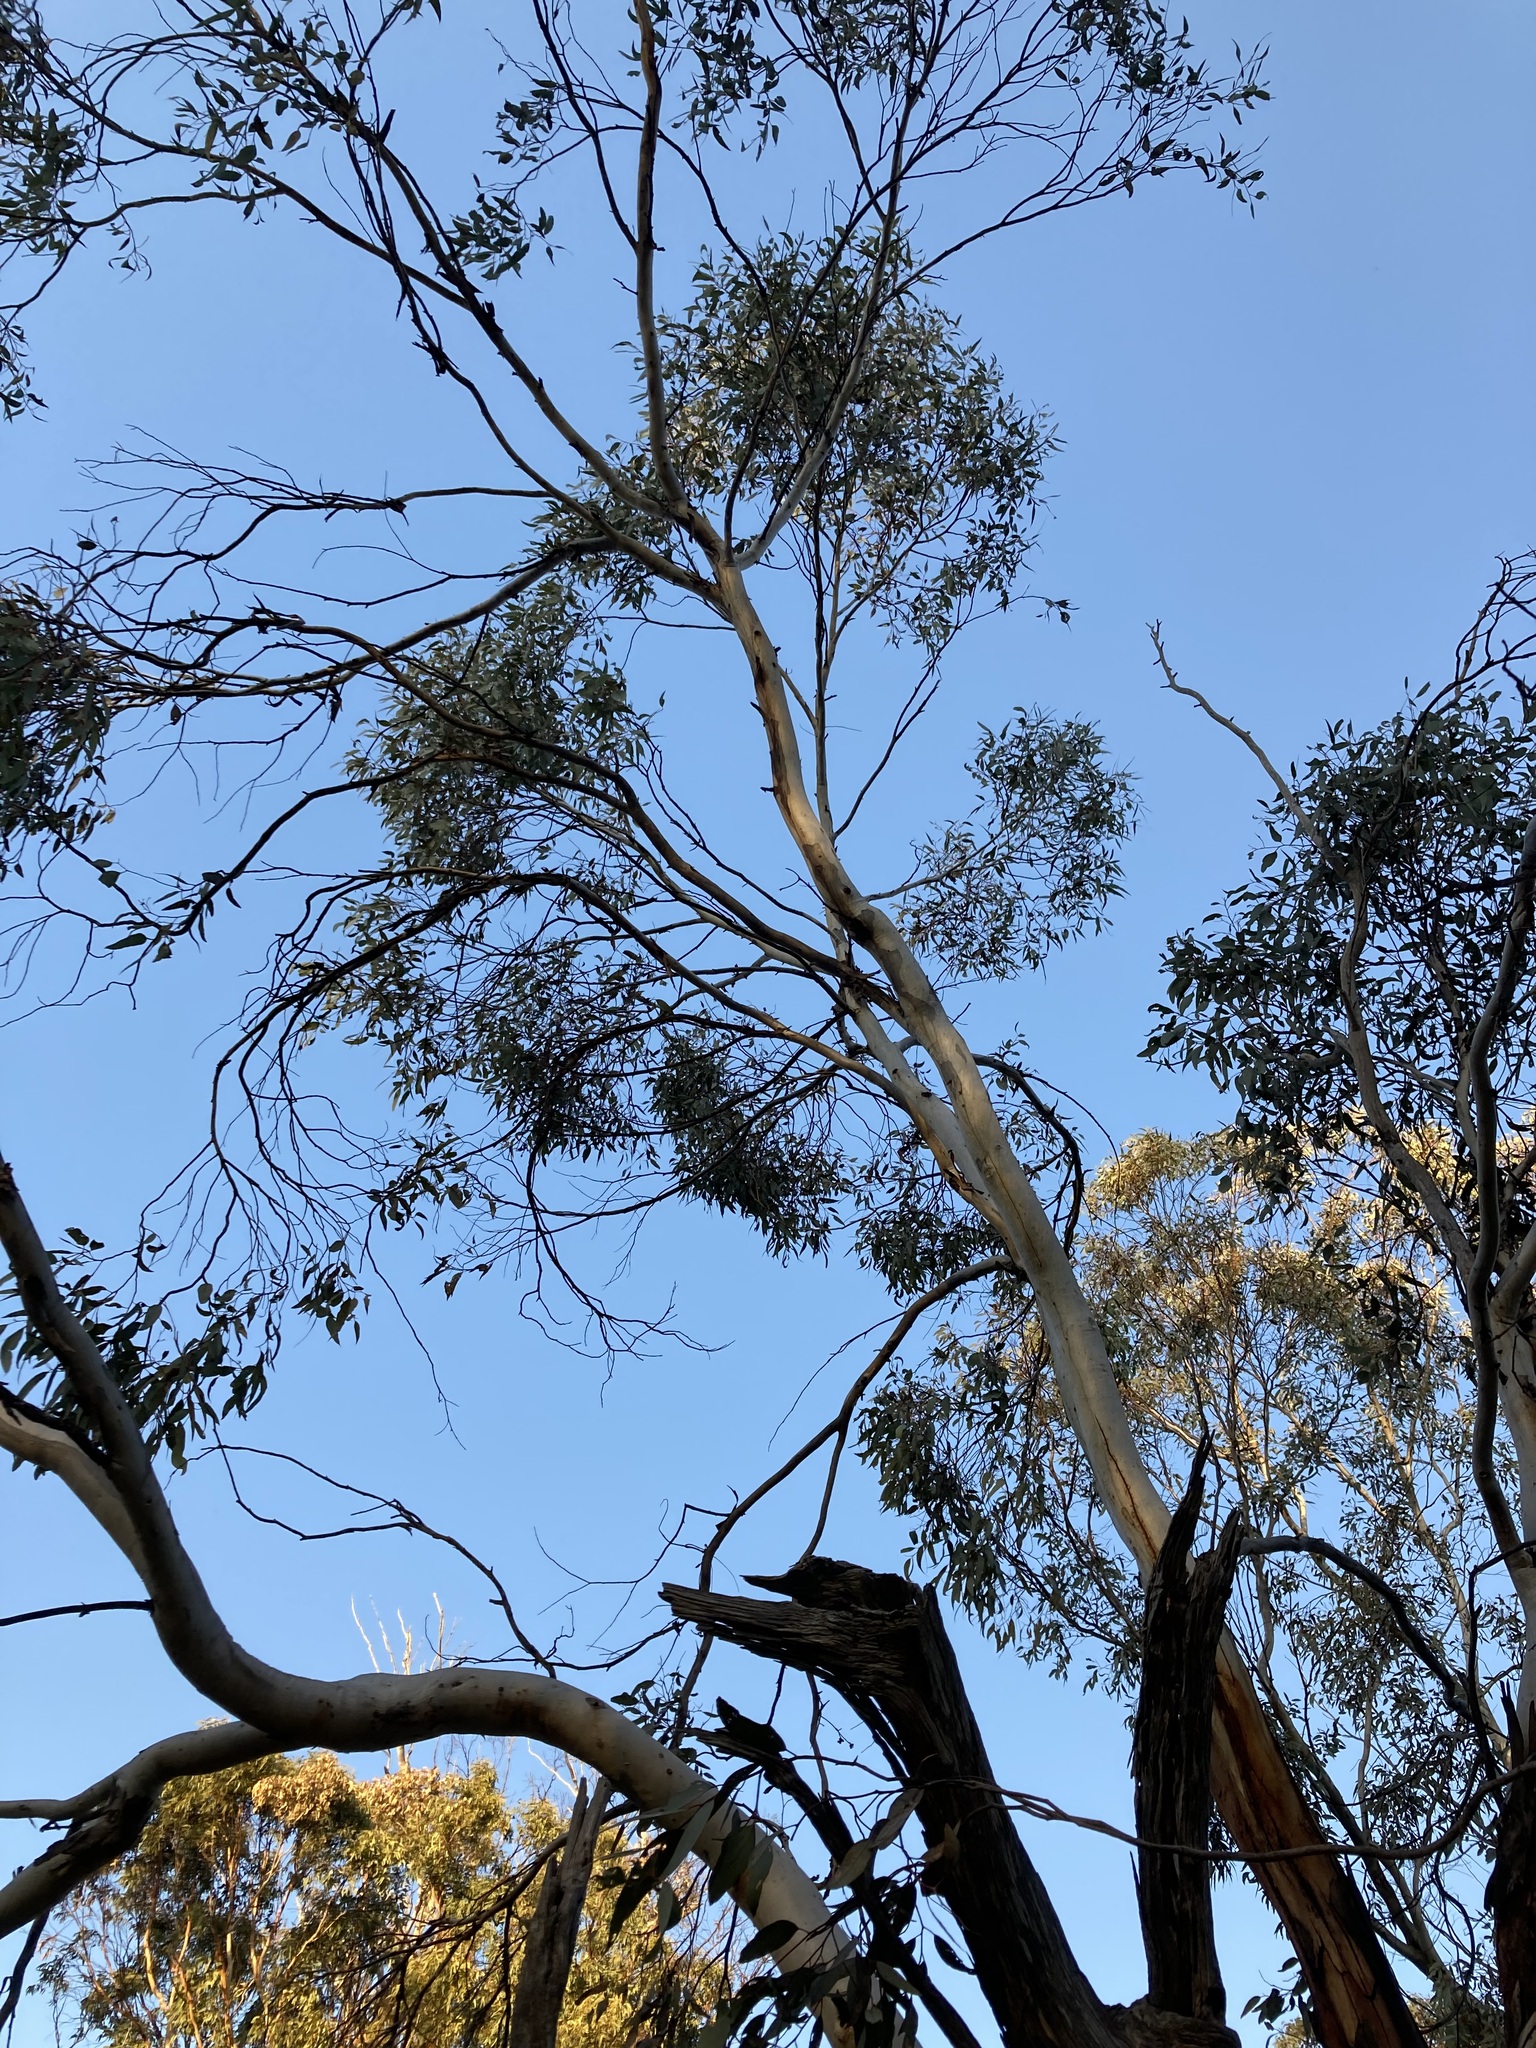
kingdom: Plantae
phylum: Tracheophyta
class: Magnoliopsida
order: Myrtales
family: Myrtaceae
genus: Eucalyptus
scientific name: Eucalyptus wandoo
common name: White gum
